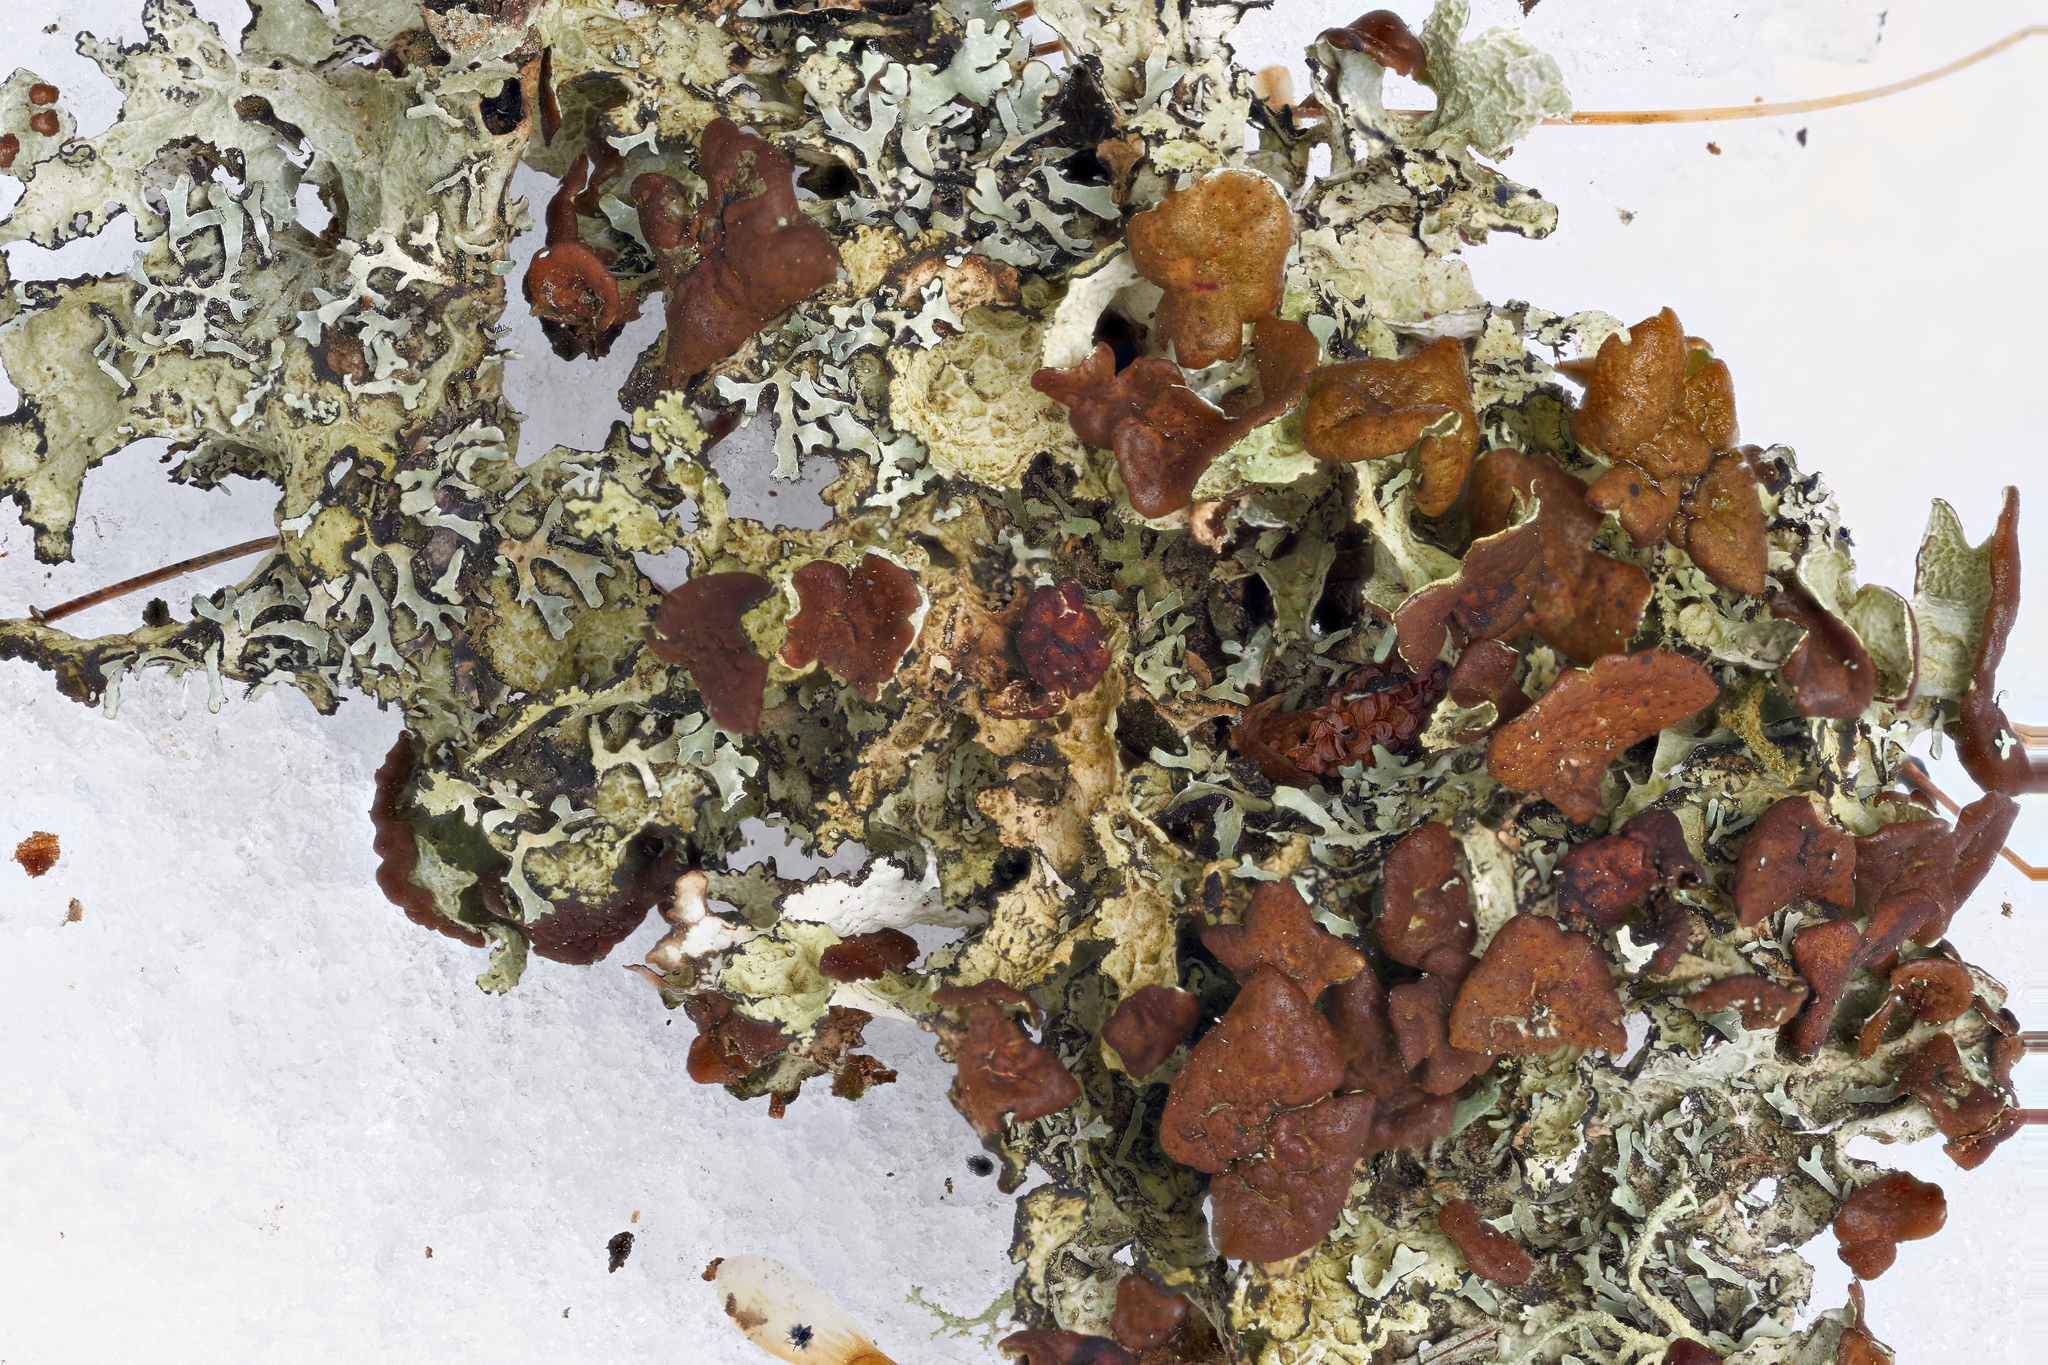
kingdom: Fungi
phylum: Ascomycota
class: Lecanoromycetes
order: Lecanorales
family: Parmeliaceae
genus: Platismatia
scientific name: Platismatia tuckermanii
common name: Crumpled rag lichen
